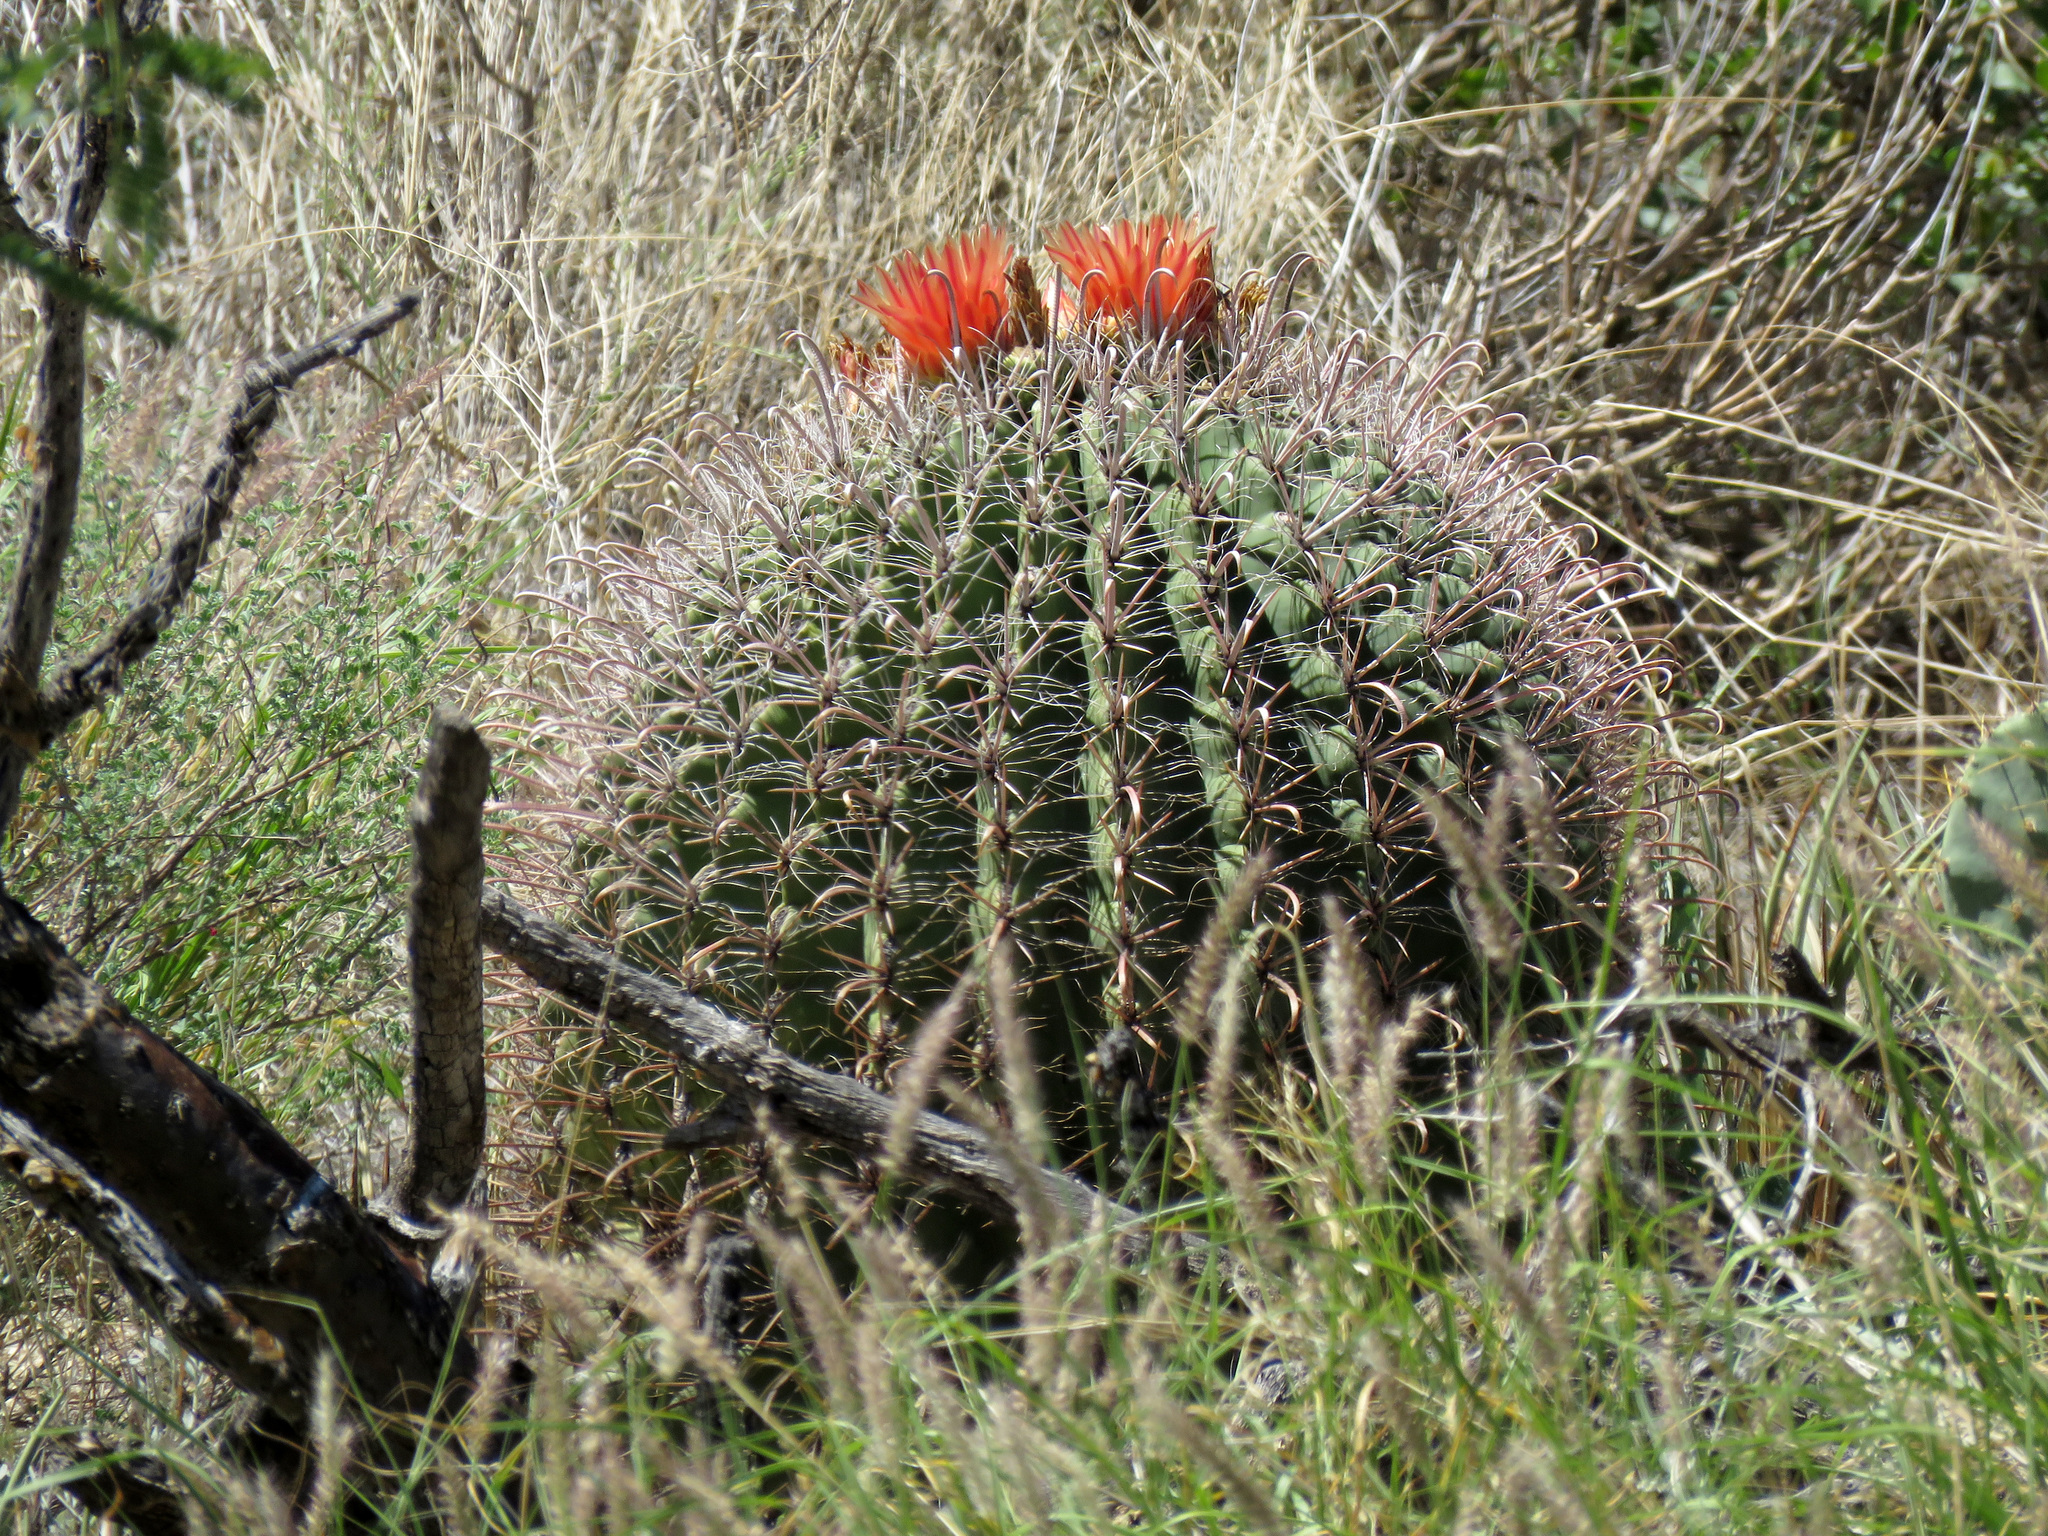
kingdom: Plantae
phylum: Tracheophyta
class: Magnoliopsida
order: Caryophyllales
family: Cactaceae
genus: Ferocactus
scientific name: Ferocactus wislizeni
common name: Candy barrel cactus
